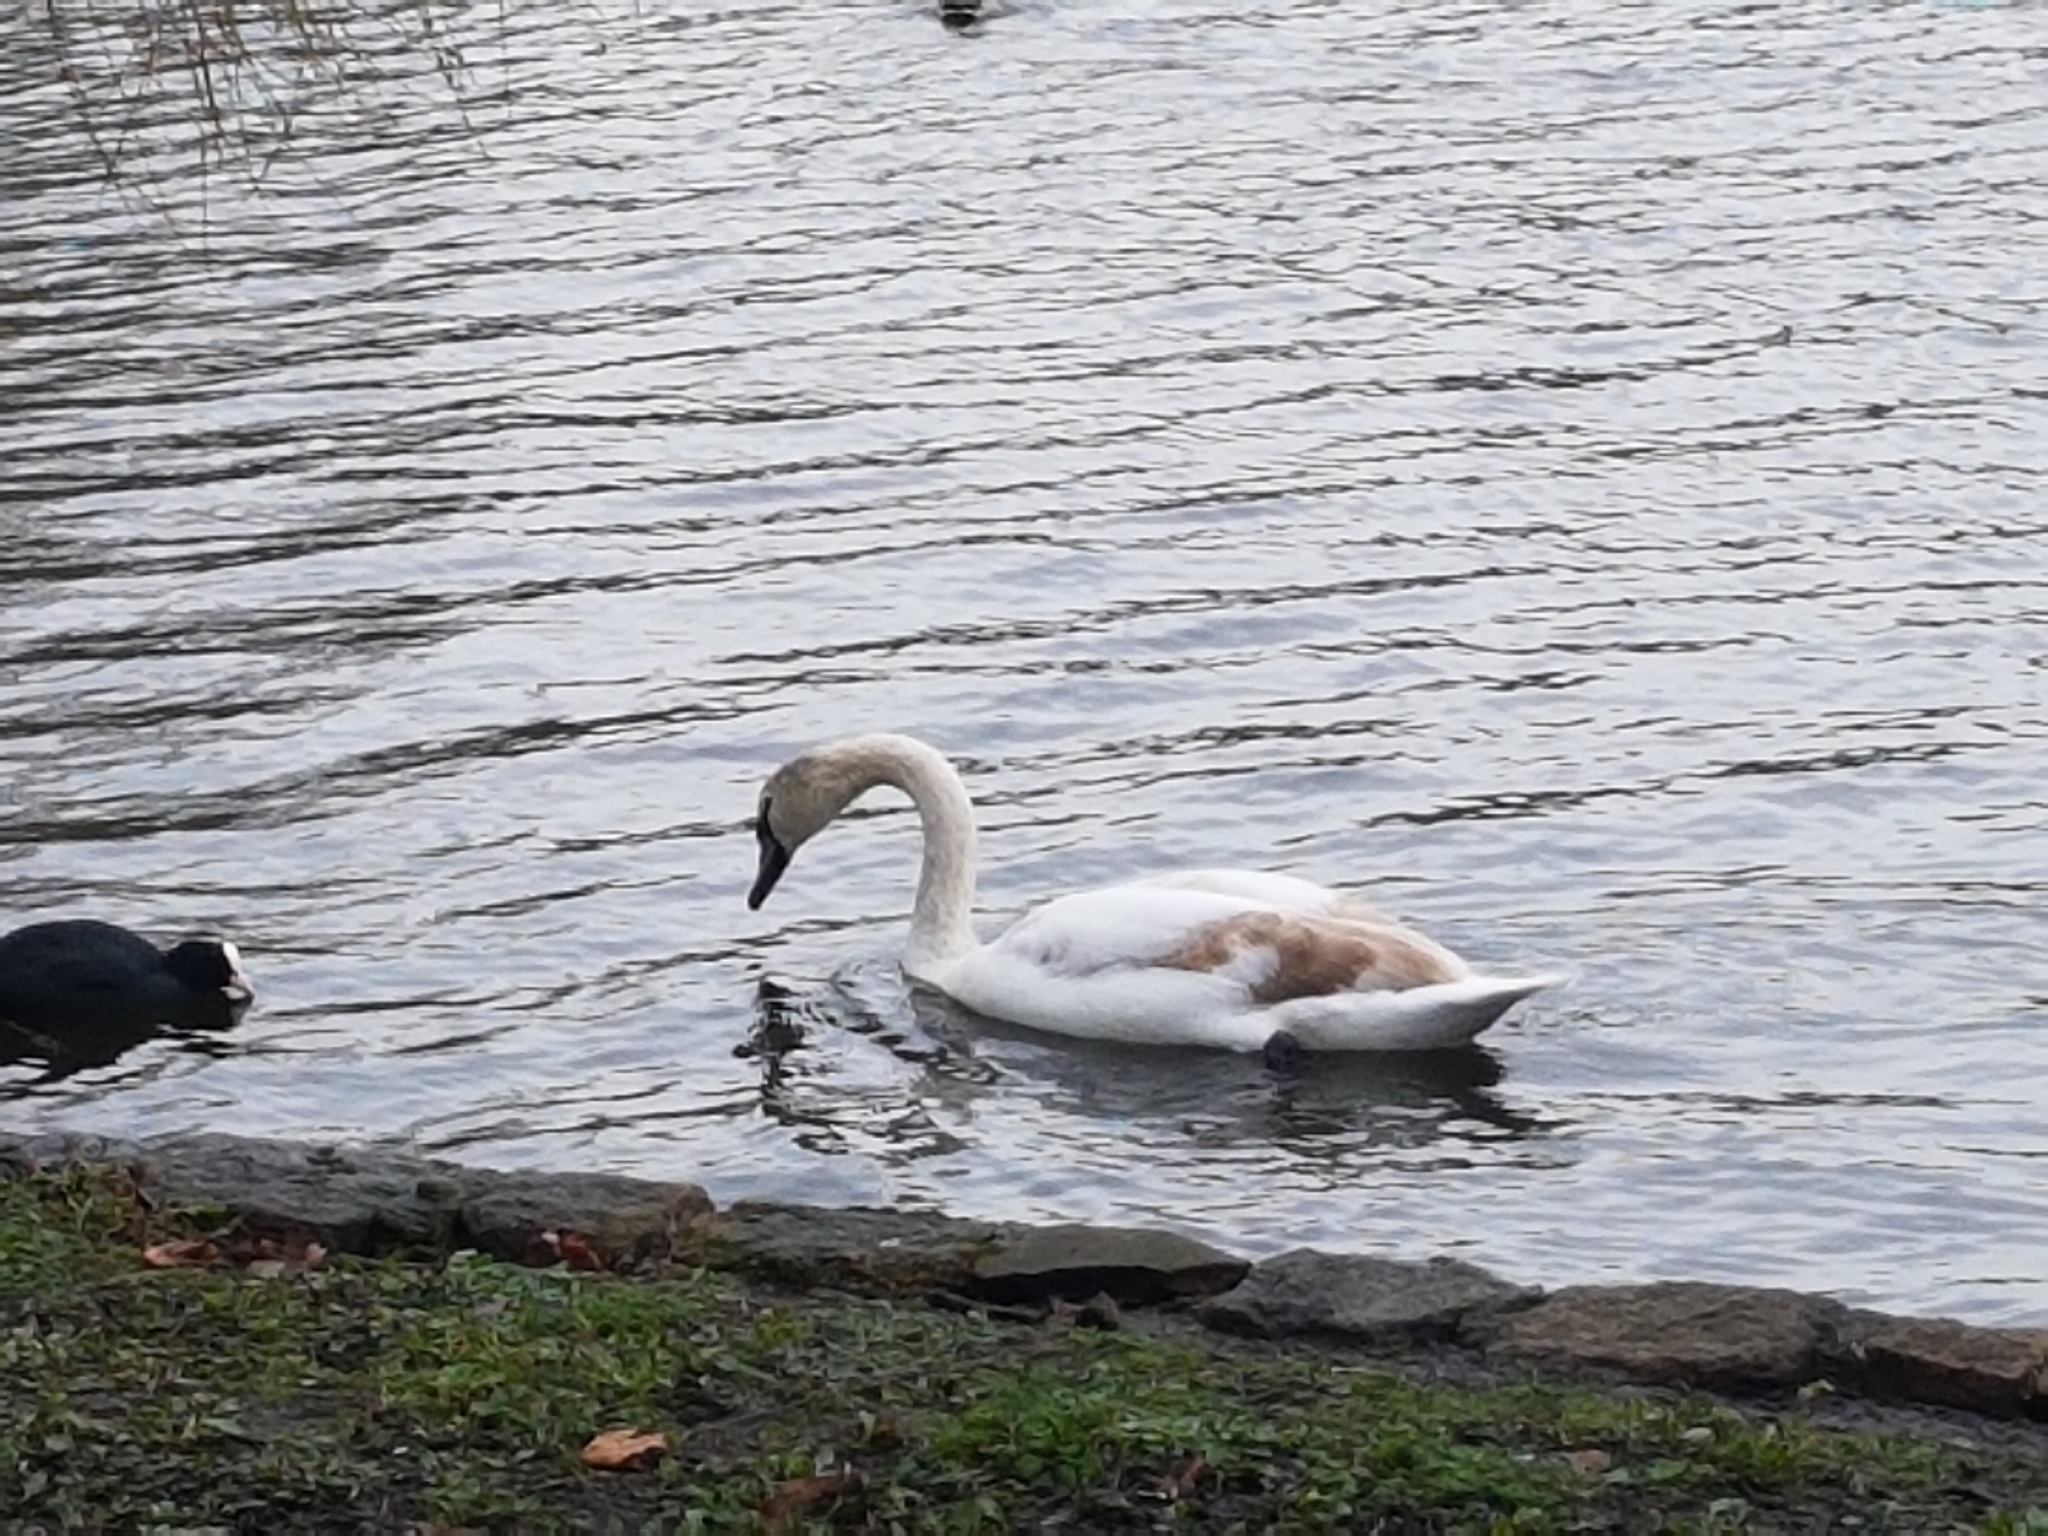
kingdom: Animalia
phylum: Chordata
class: Aves
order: Anseriformes
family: Anatidae
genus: Cygnus
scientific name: Cygnus olor
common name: Mute swan
